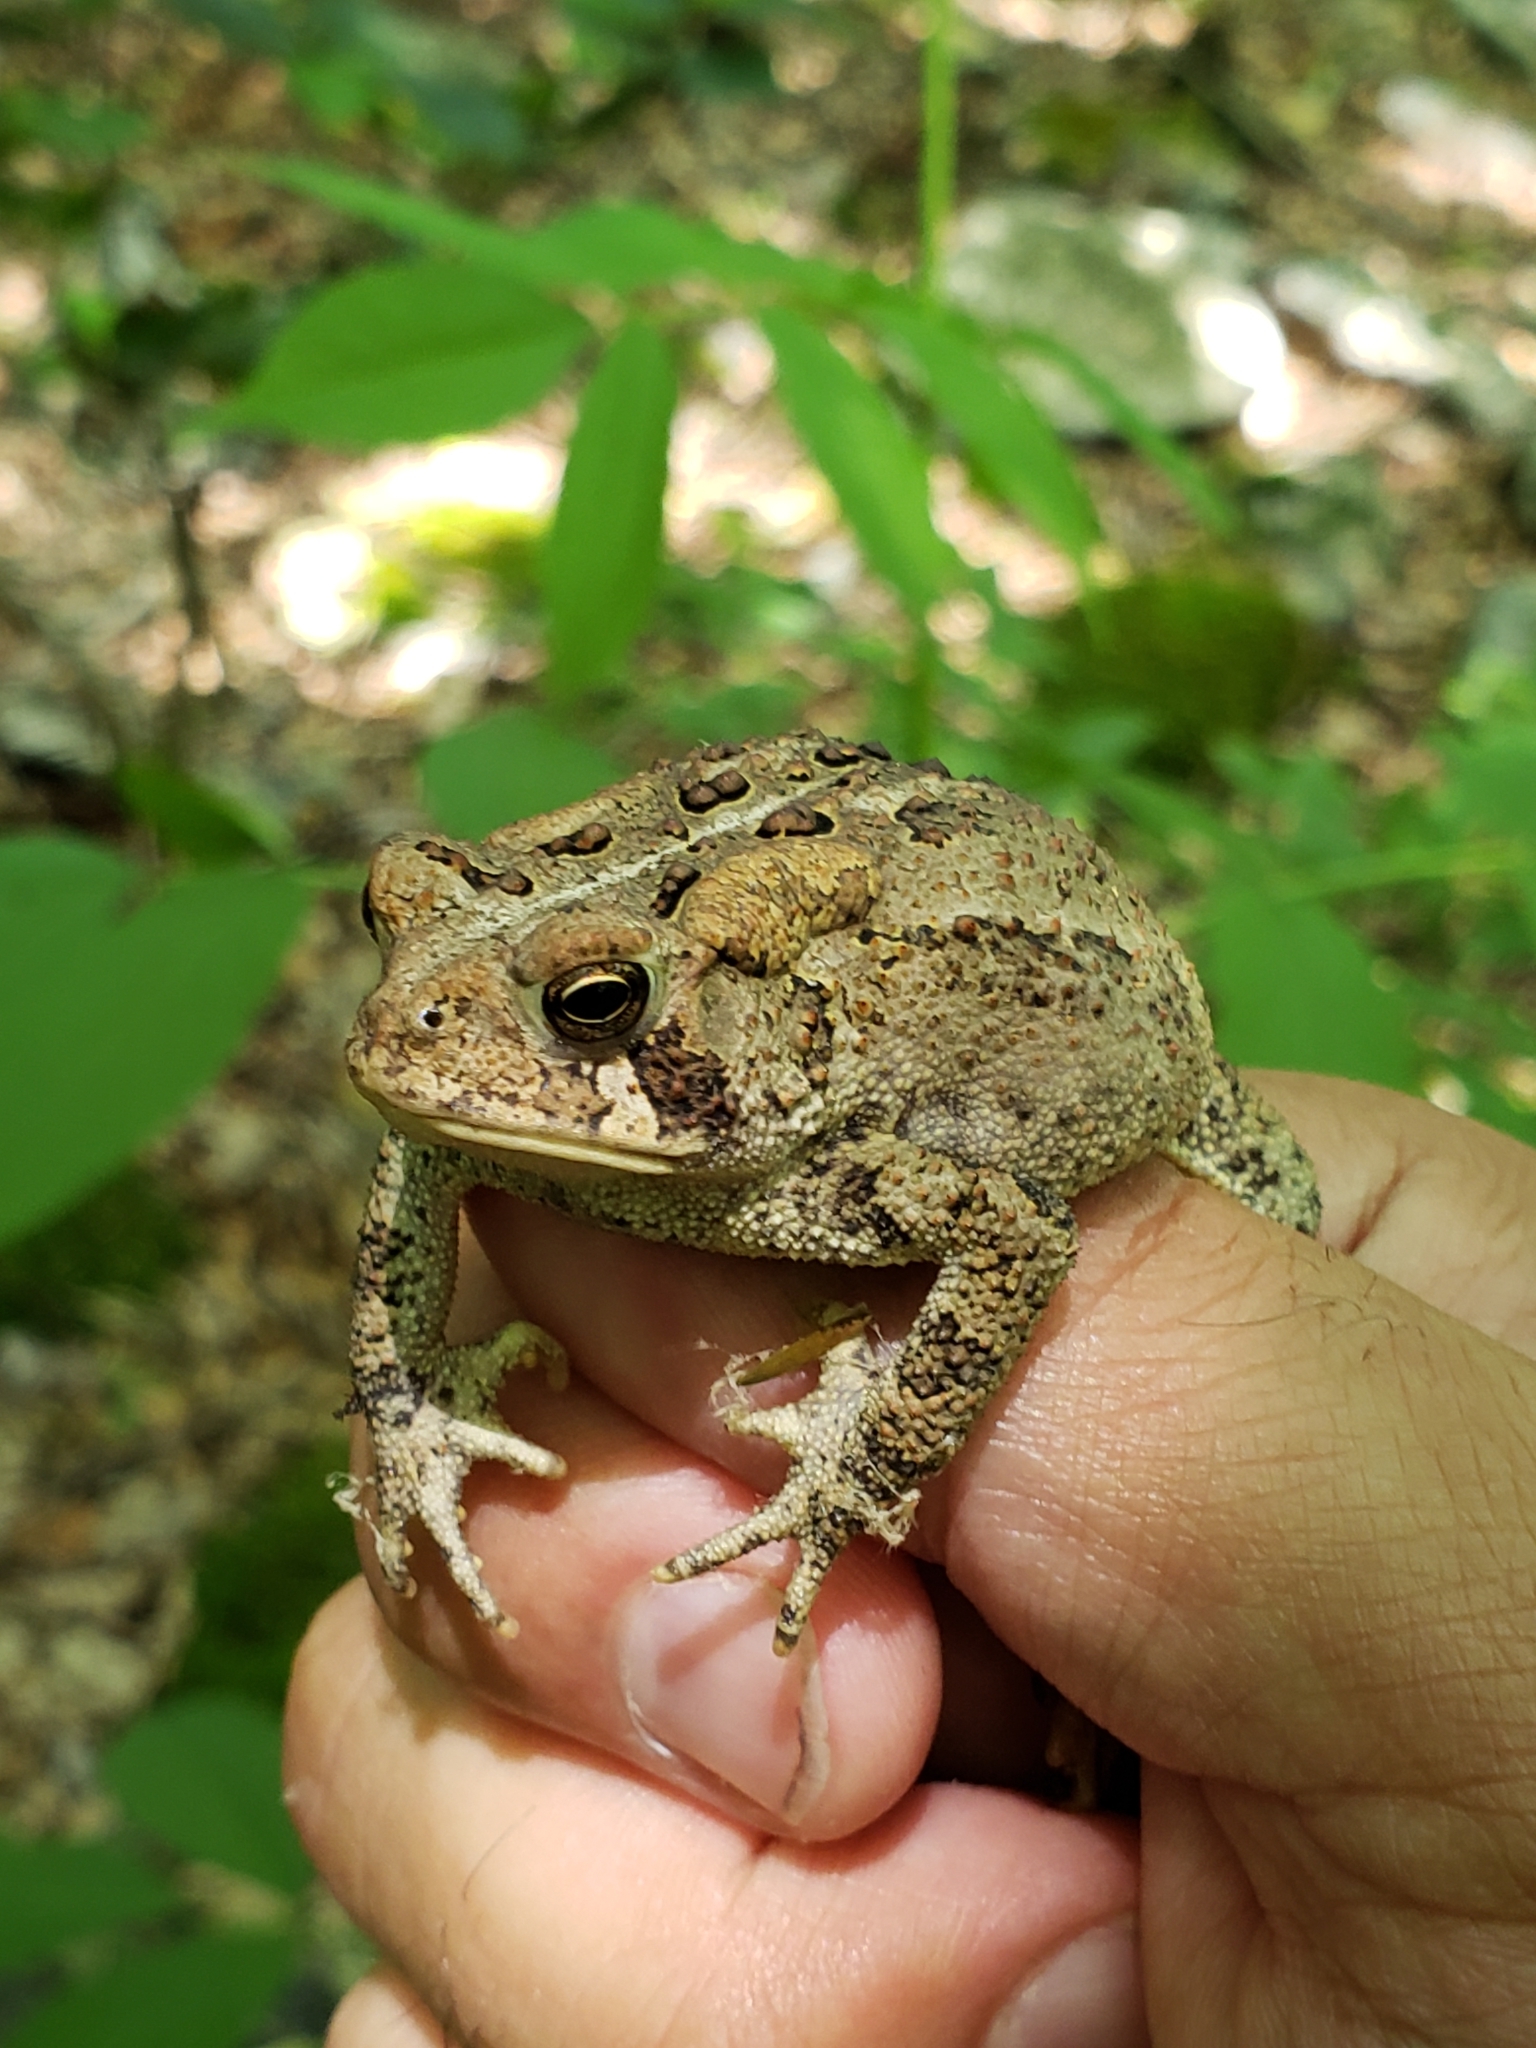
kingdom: Animalia
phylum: Chordata
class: Amphibia
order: Anura
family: Bufonidae
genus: Anaxyrus
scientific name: Anaxyrus americanus
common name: American toad
